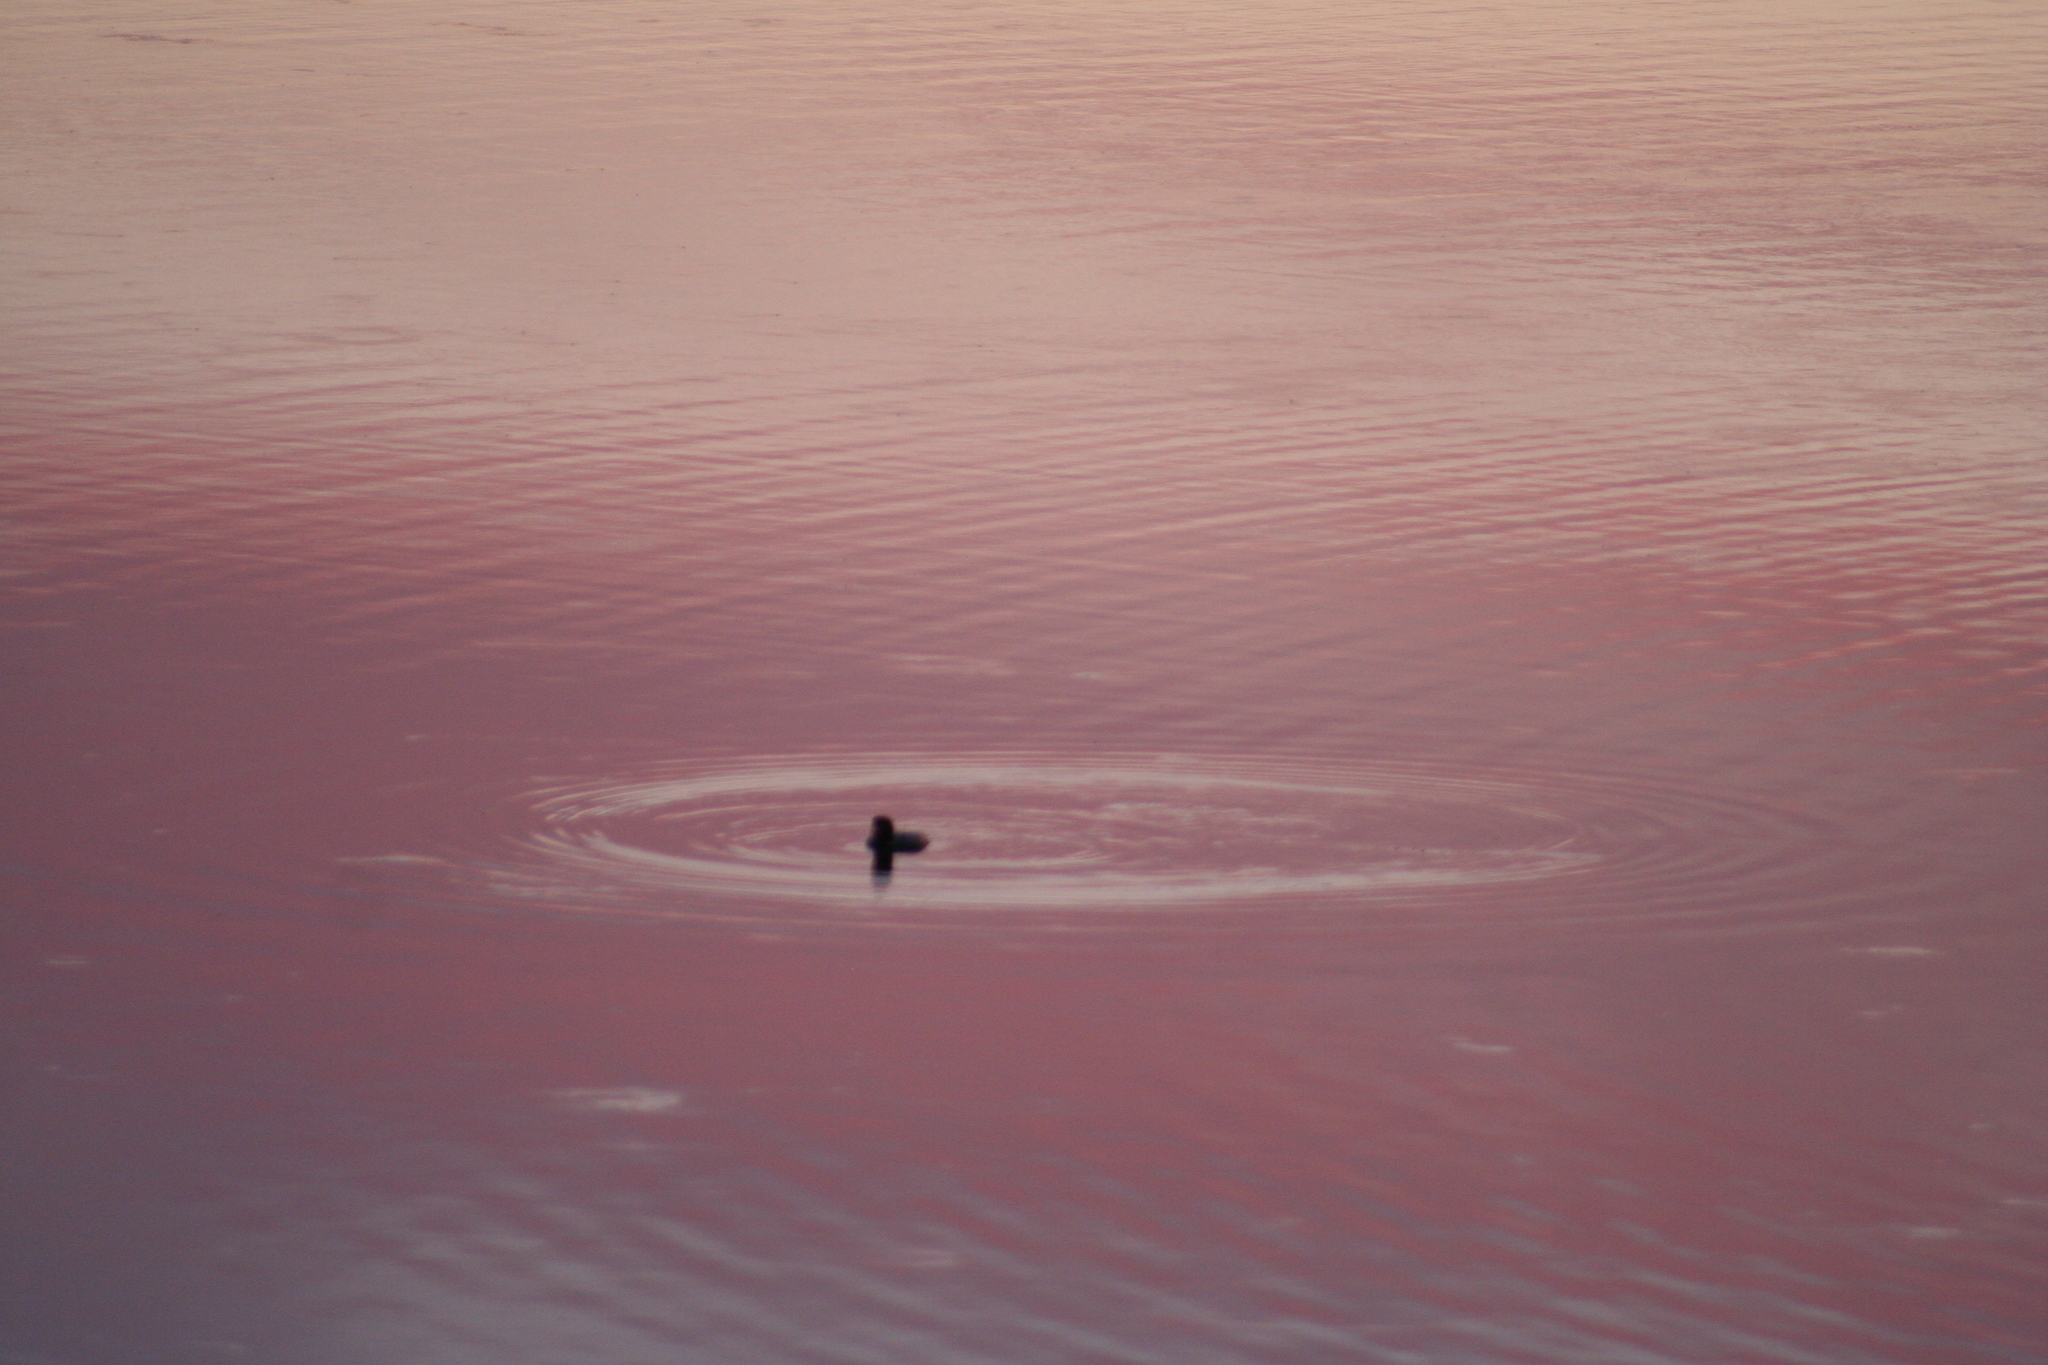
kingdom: Animalia
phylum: Chordata
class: Aves
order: Gaviiformes
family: Gaviidae
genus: Gavia
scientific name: Gavia immer
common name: Common loon
